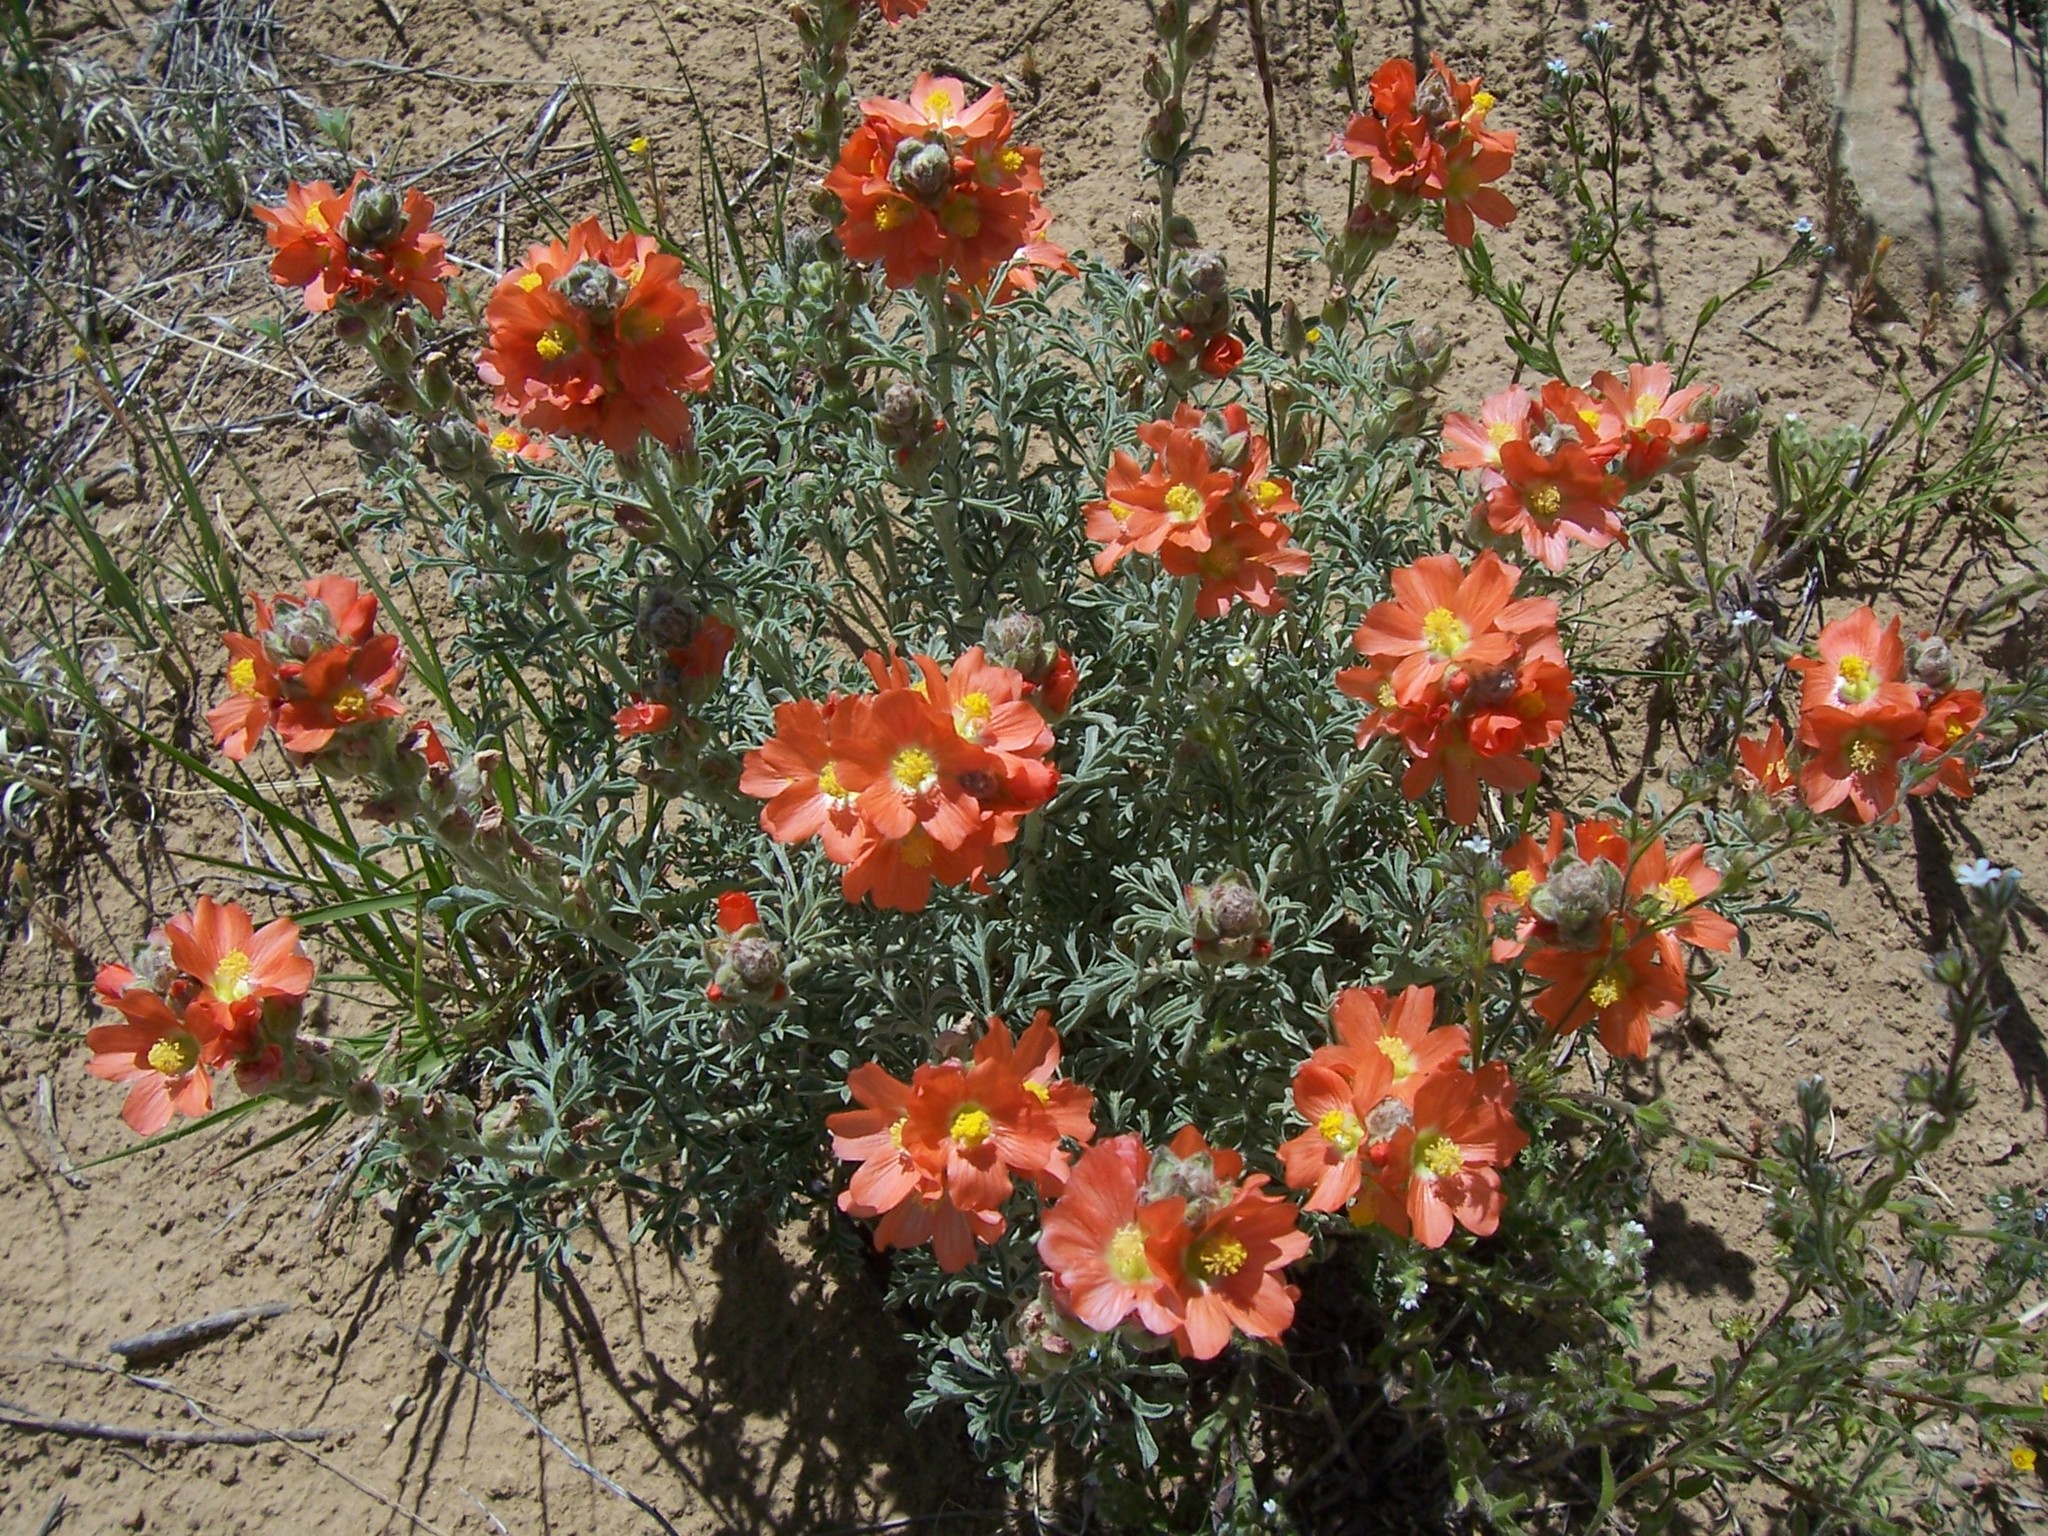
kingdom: Plantae
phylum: Tracheophyta
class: Magnoliopsida
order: Malvales
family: Malvaceae
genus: Sphaeralcea
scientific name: Sphaeralcea coccinea
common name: Moss-rose
